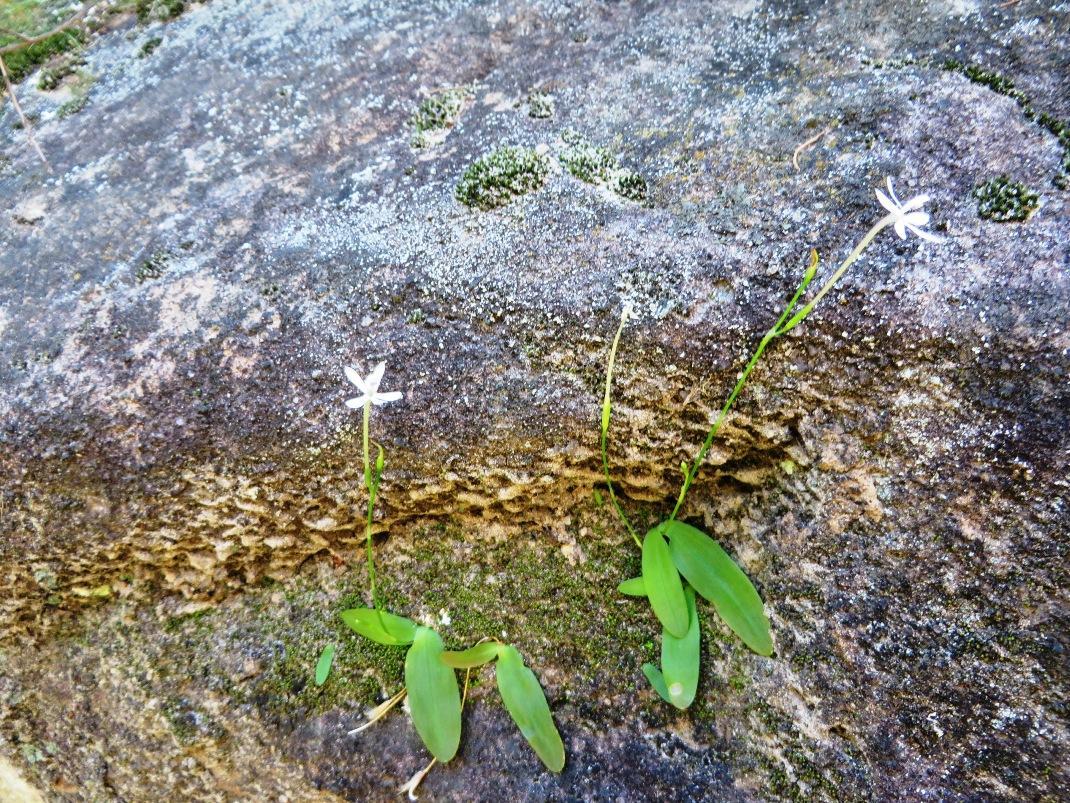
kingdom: Plantae
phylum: Tracheophyta
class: Liliopsida
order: Asparagales
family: Iridaceae
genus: Xenoscapa
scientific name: Xenoscapa fistulosa
